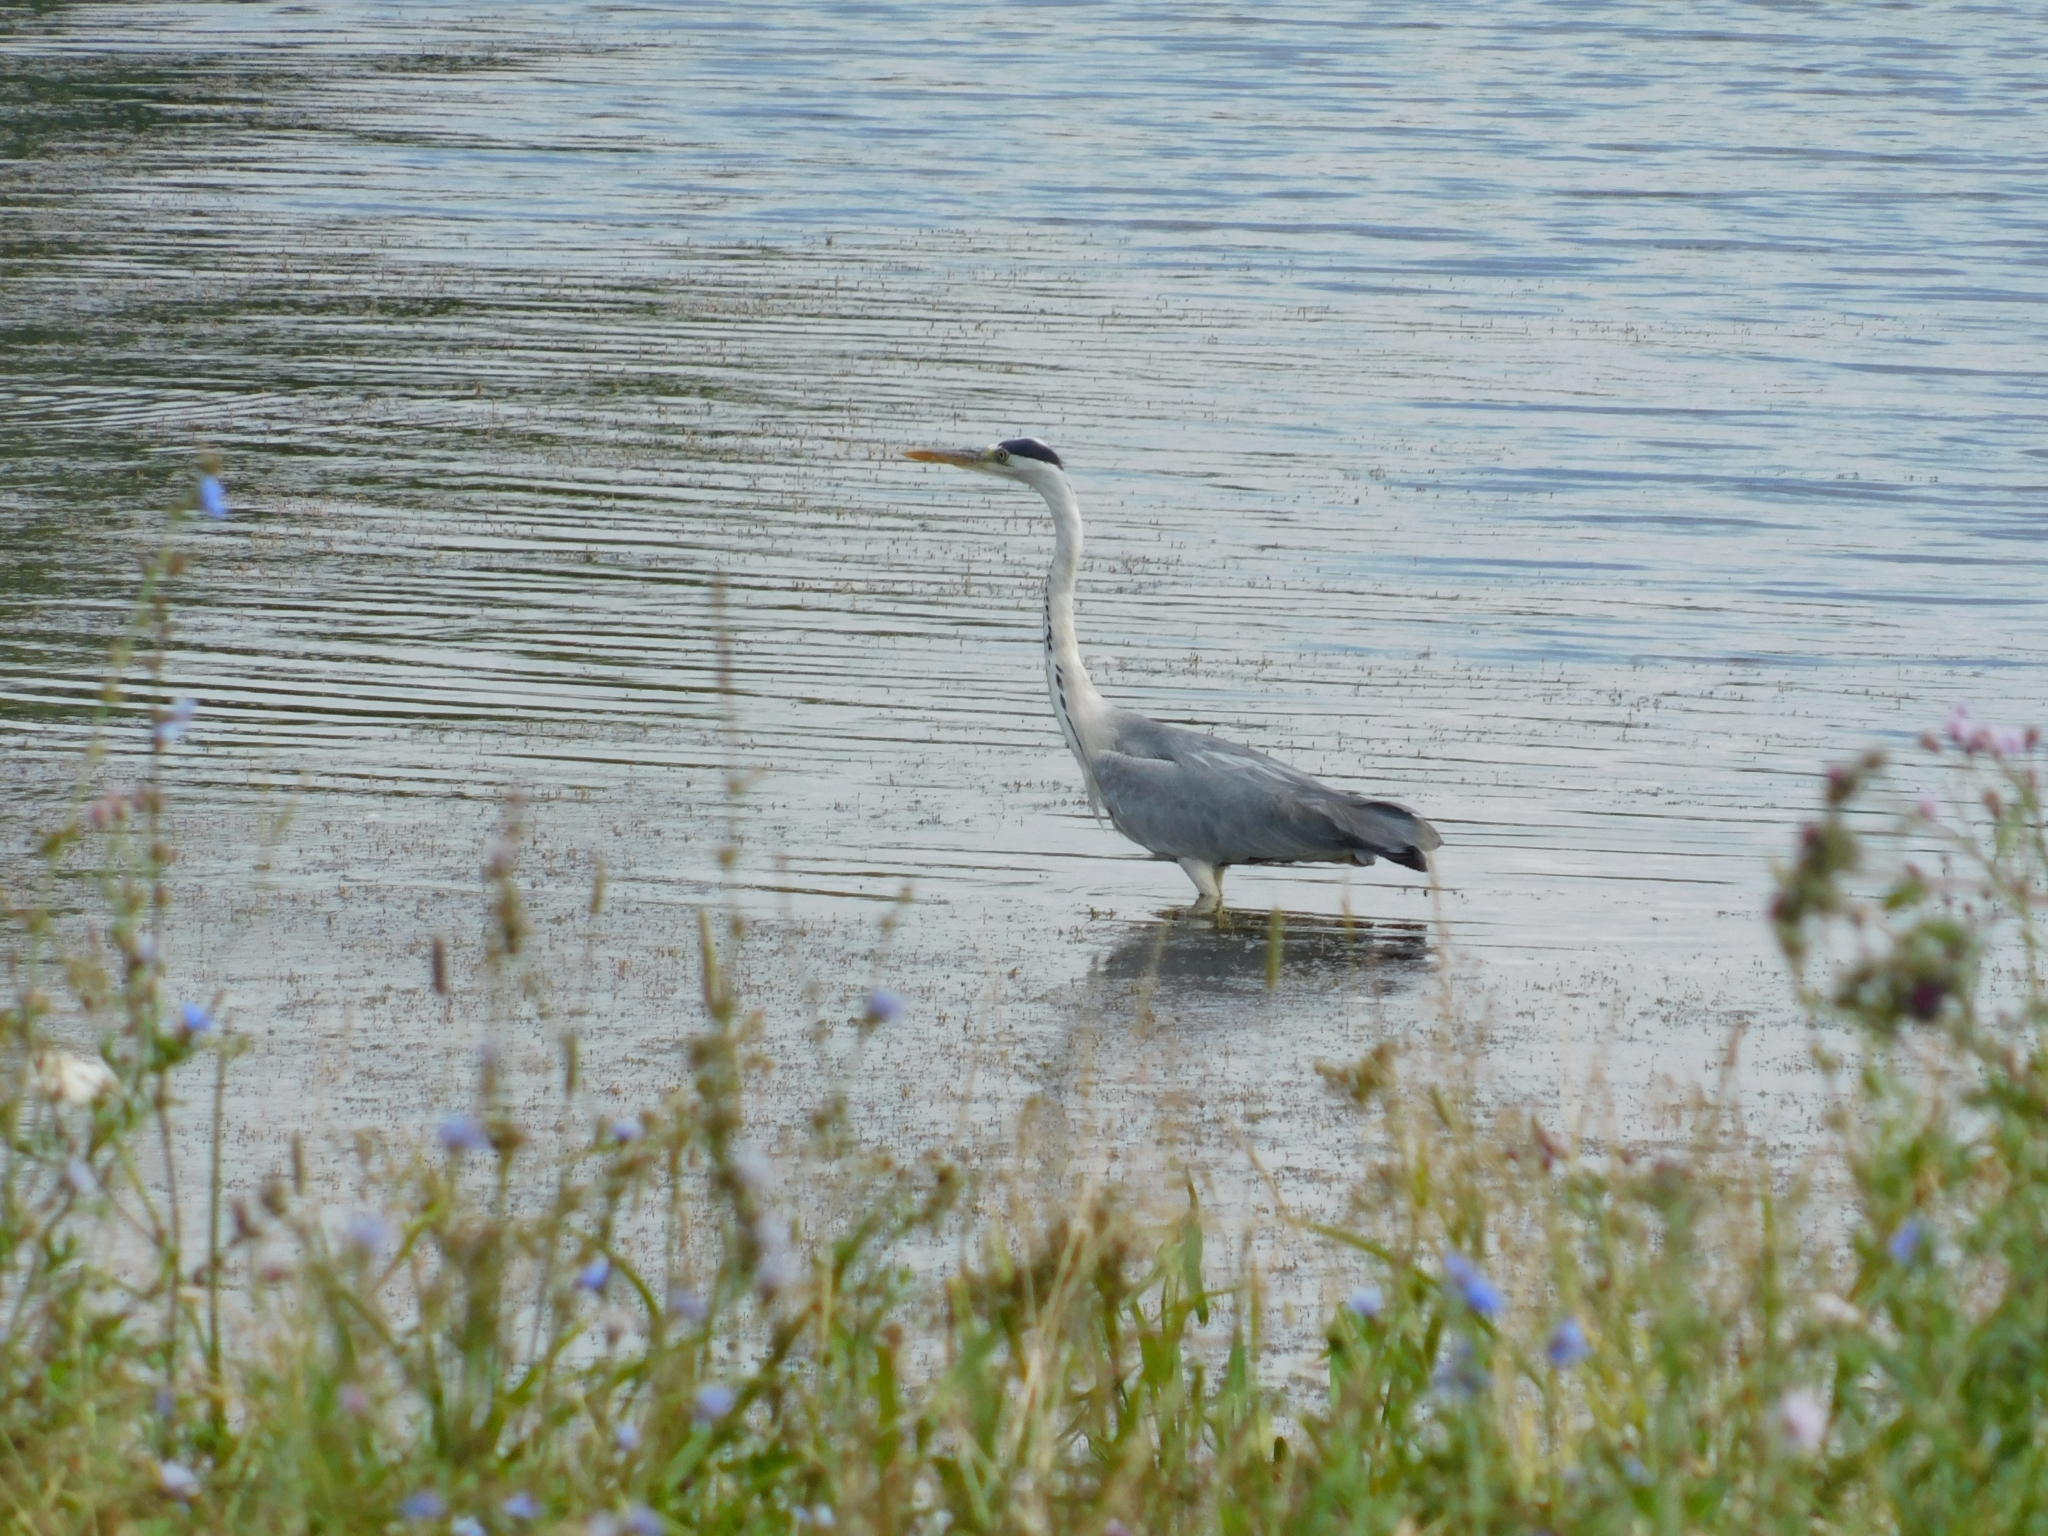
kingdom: Animalia
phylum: Chordata
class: Aves
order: Pelecaniformes
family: Ardeidae
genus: Ardea
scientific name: Ardea cinerea
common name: Grey heron
